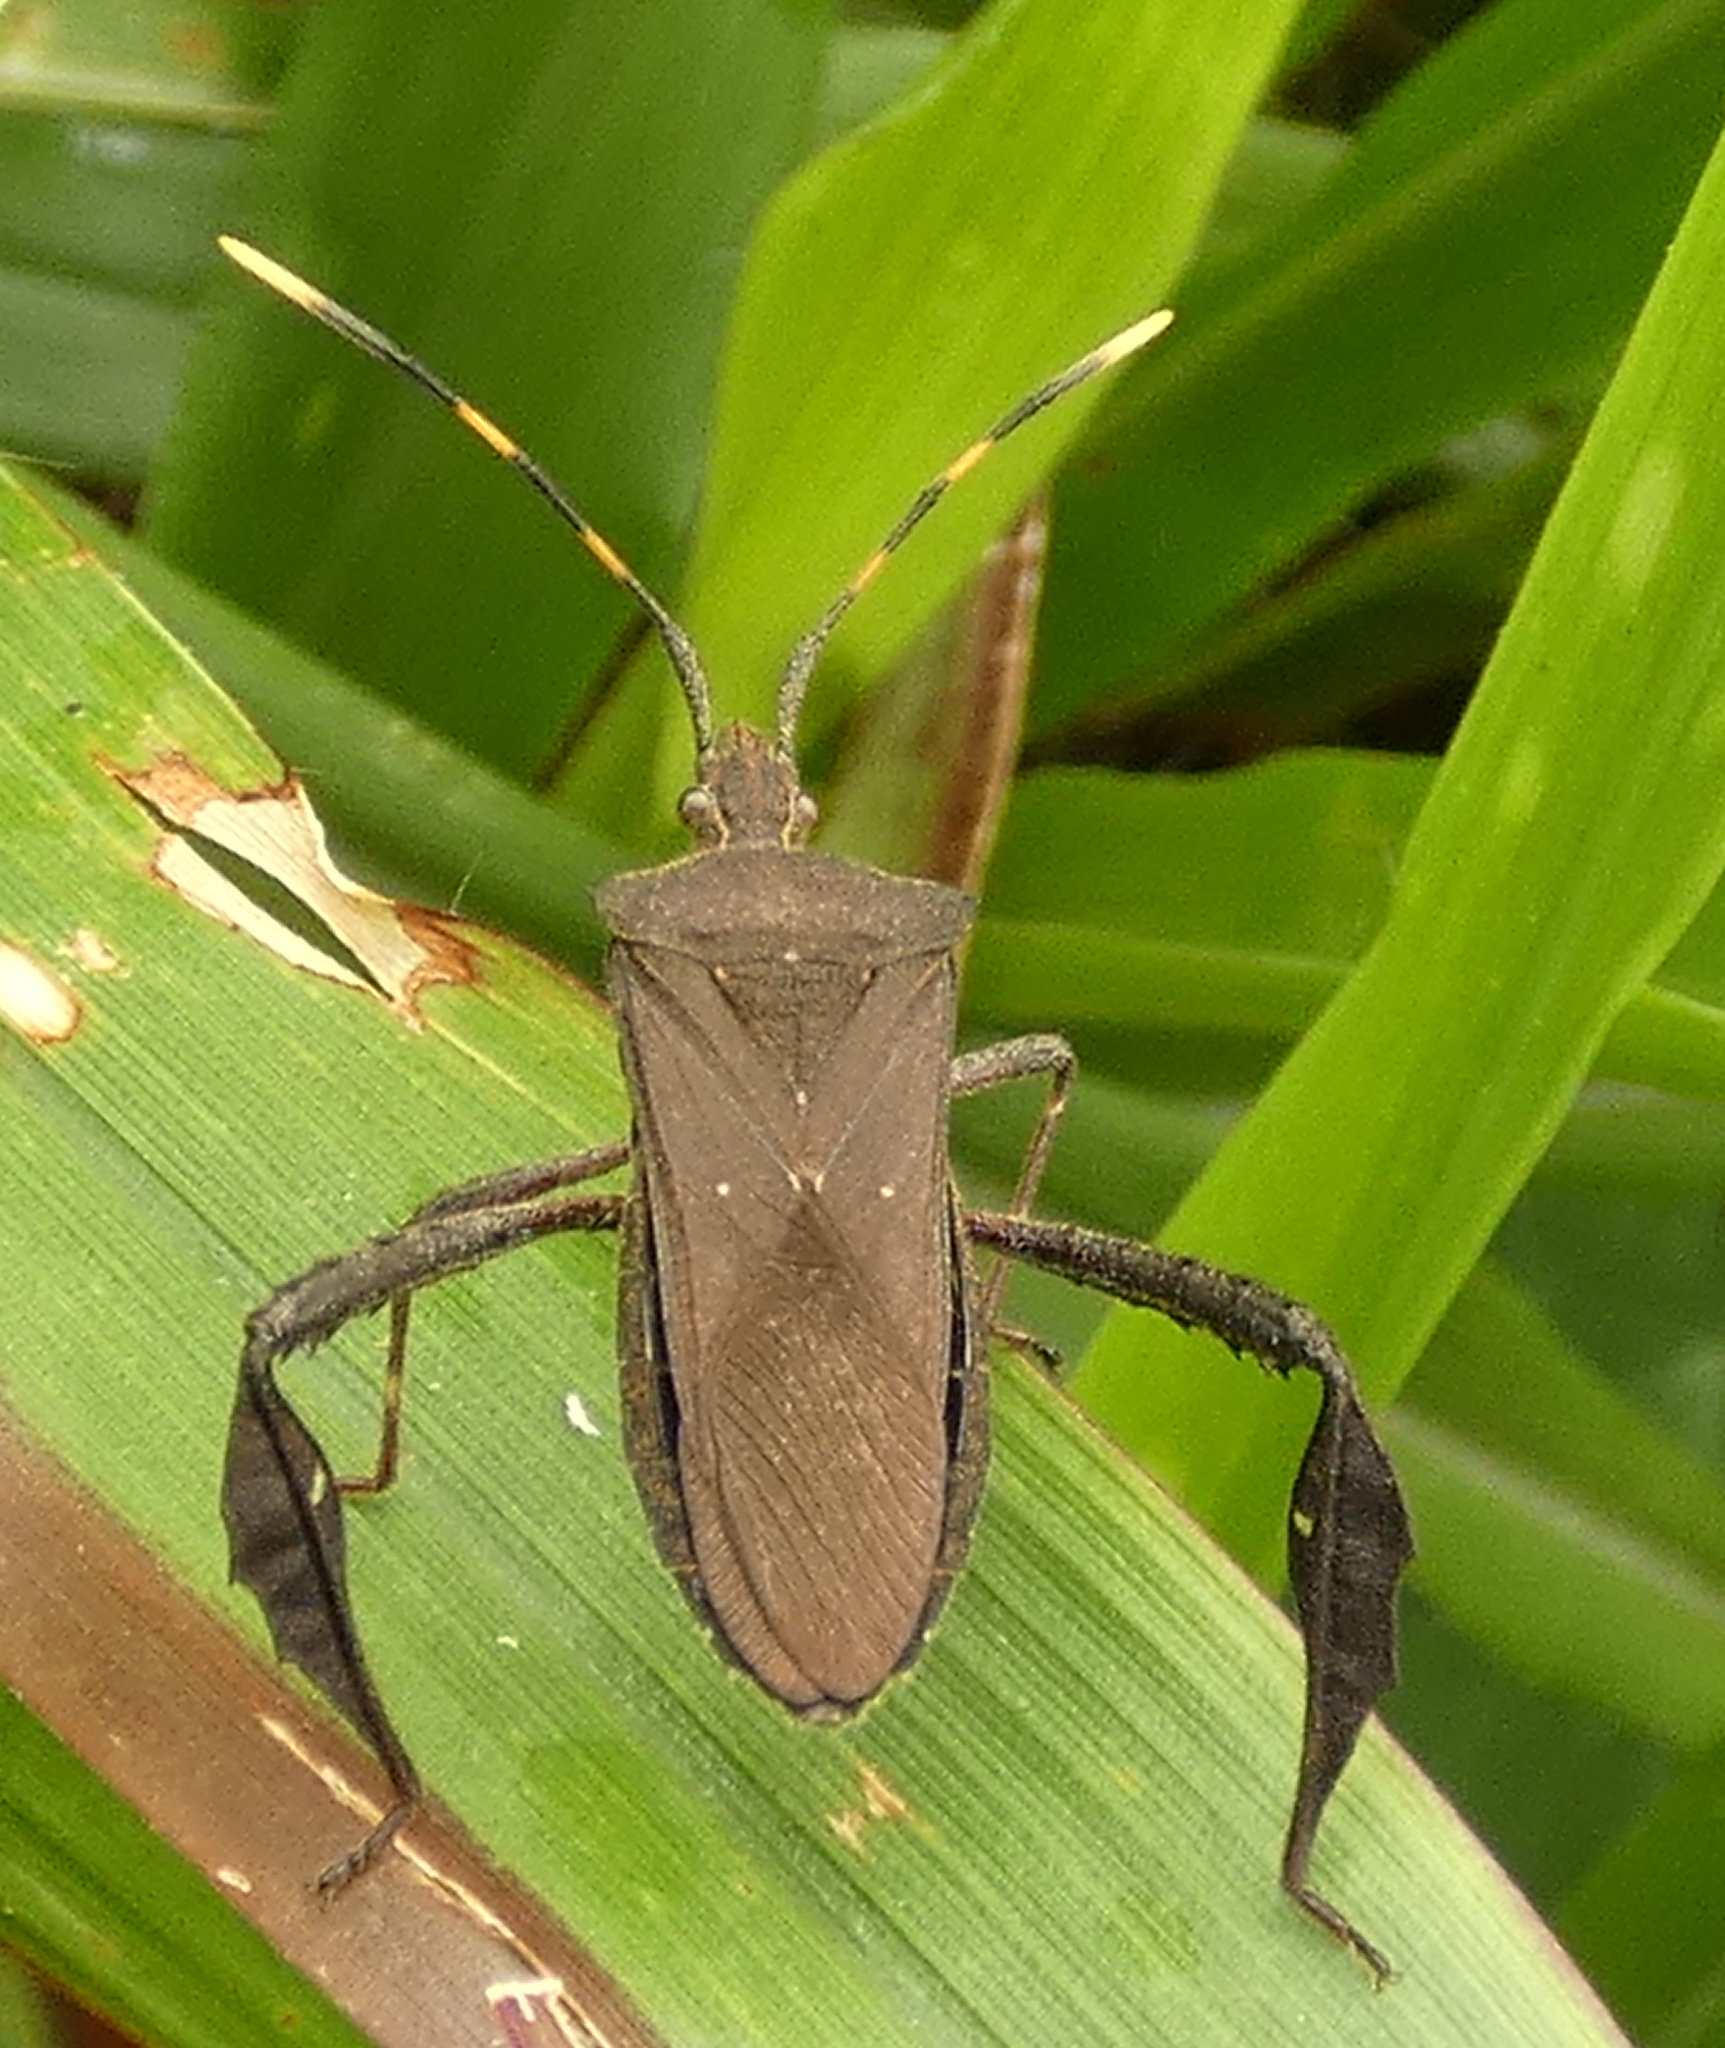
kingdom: Animalia
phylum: Arthropoda
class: Insecta
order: Hemiptera
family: Coreidae
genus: Leptoglossus
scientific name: Leptoglossus gonagra
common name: Citron bug
